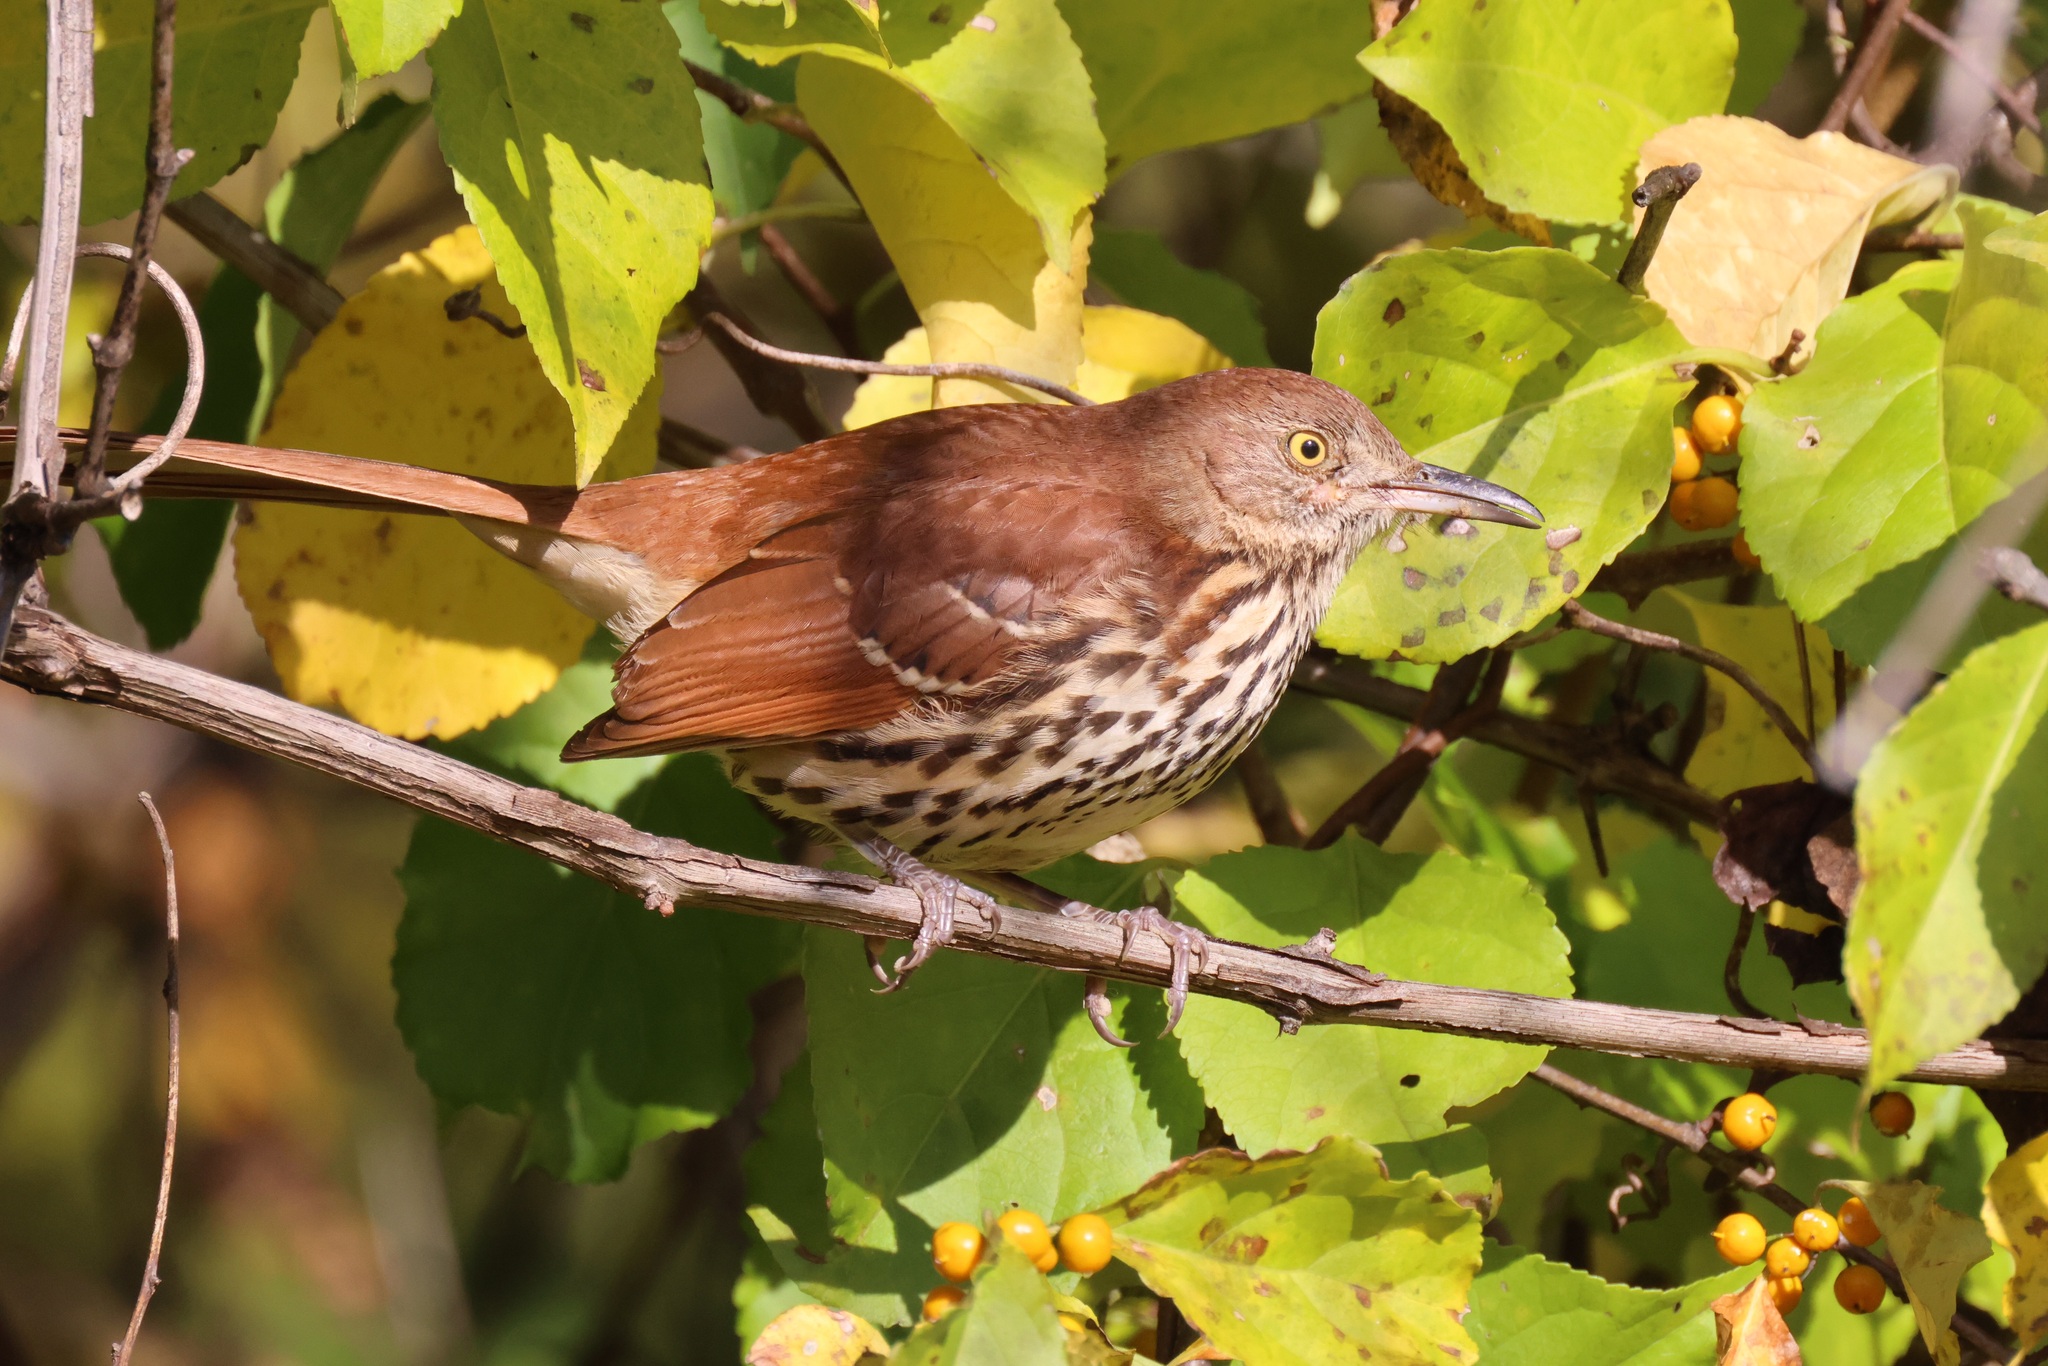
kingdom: Animalia
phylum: Chordata
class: Aves
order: Passeriformes
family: Mimidae
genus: Toxostoma
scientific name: Toxostoma rufum
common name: Brown thrasher
